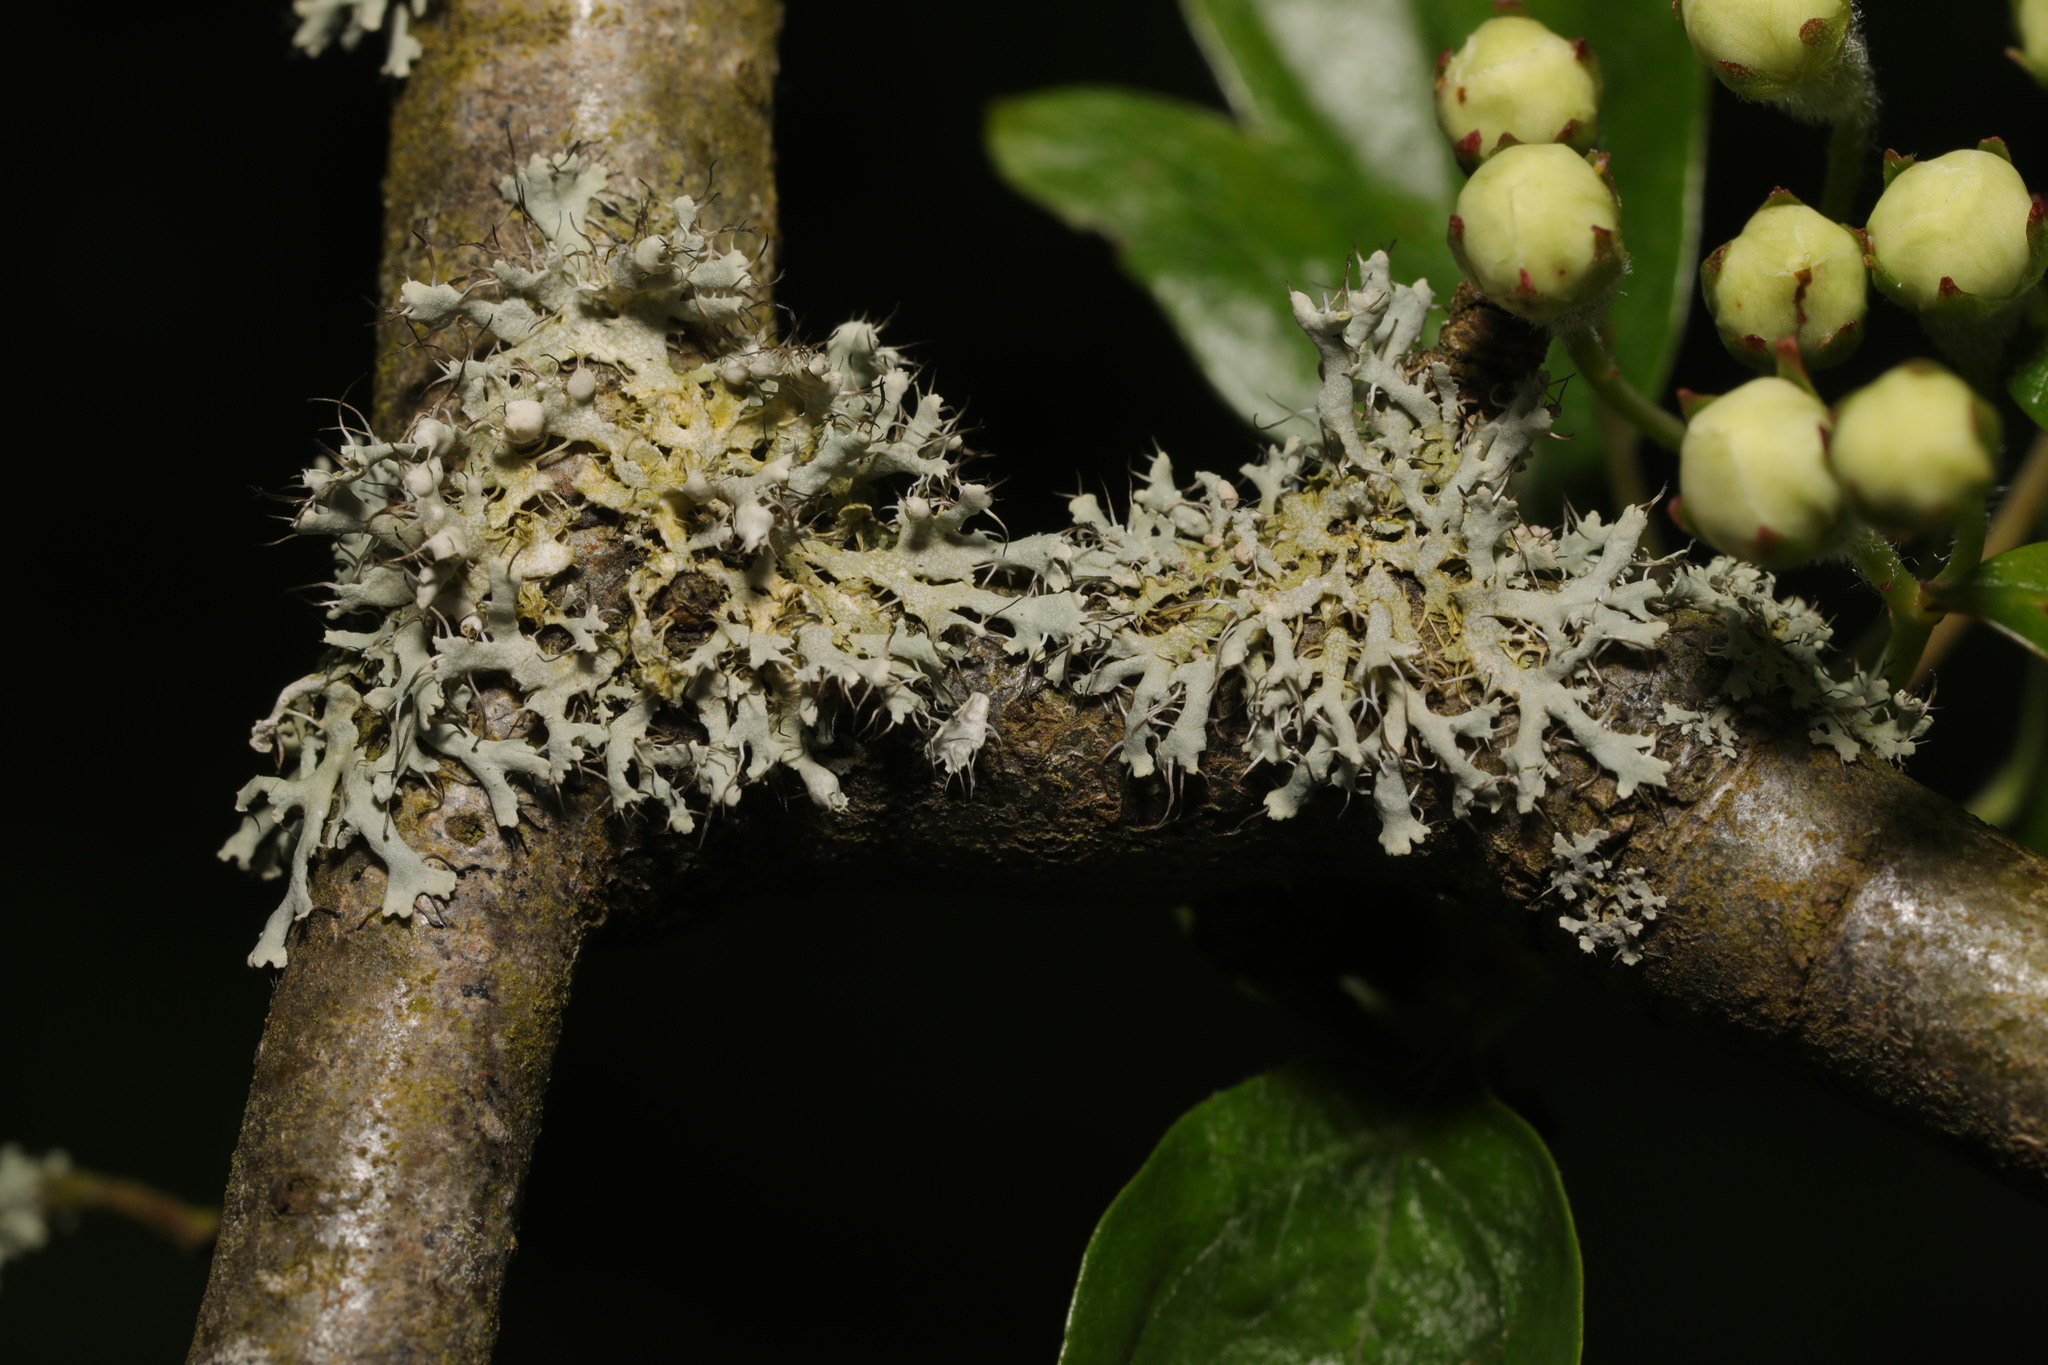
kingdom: Fungi
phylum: Ascomycota
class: Lecanoromycetes
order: Caliciales
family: Physciaceae
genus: Physcia
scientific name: Physcia adscendens
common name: Hooded rosette lichen
